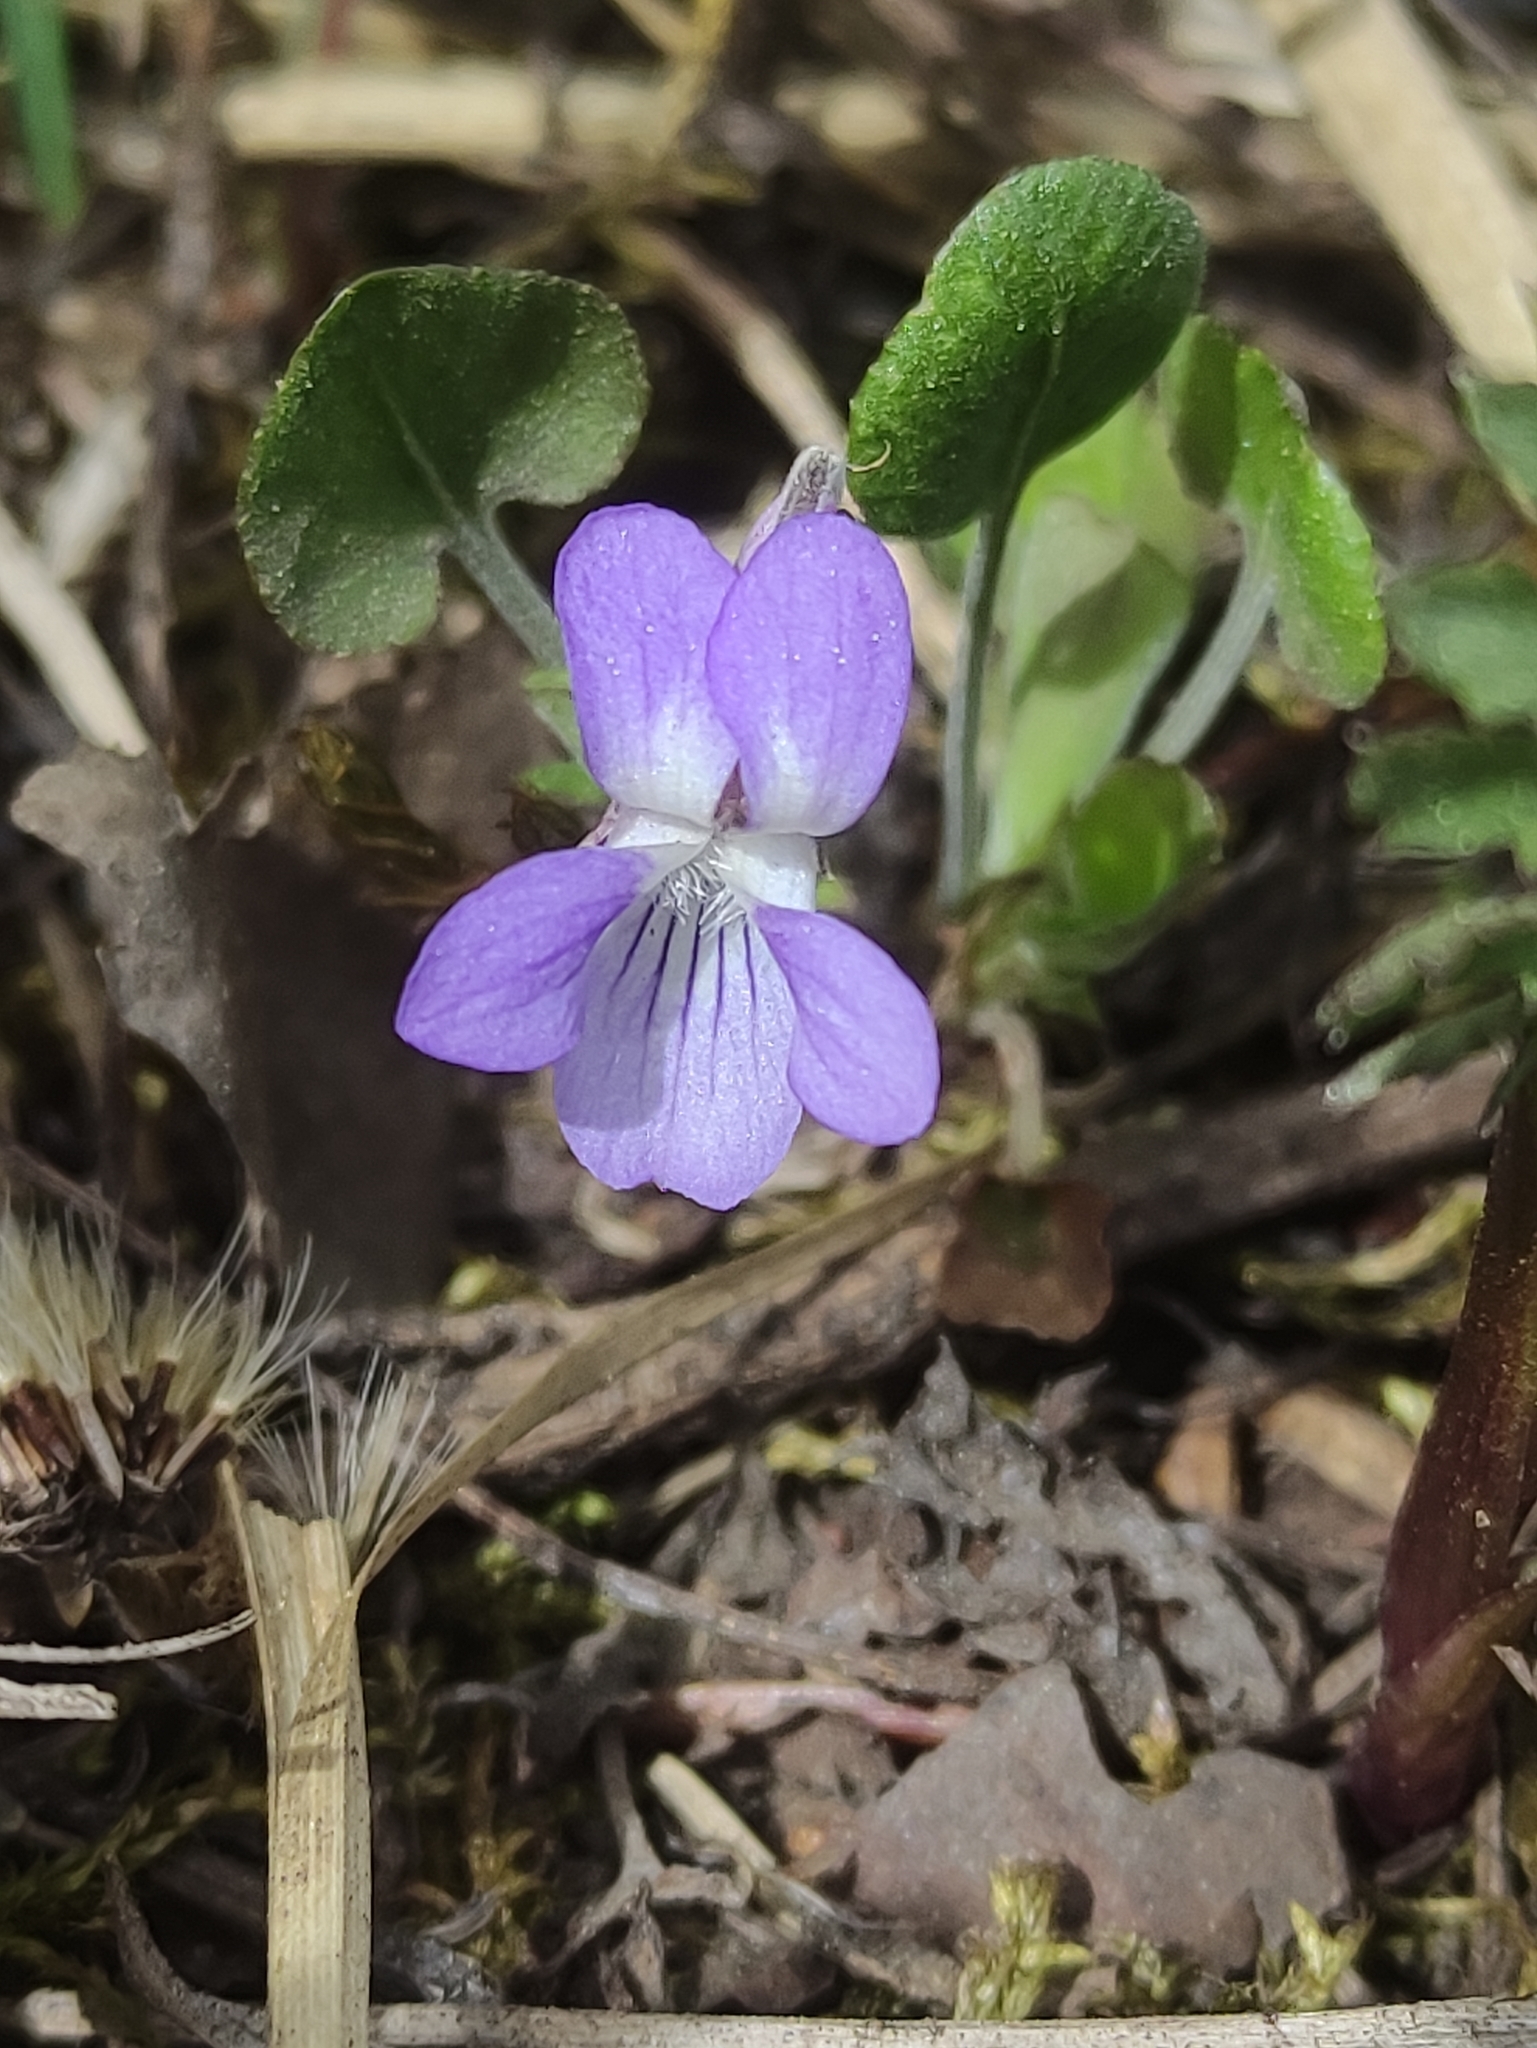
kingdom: Plantae
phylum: Tracheophyta
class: Magnoliopsida
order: Malpighiales
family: Violaceae
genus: Viola
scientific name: Viola rupestris
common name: Teesdale violet
